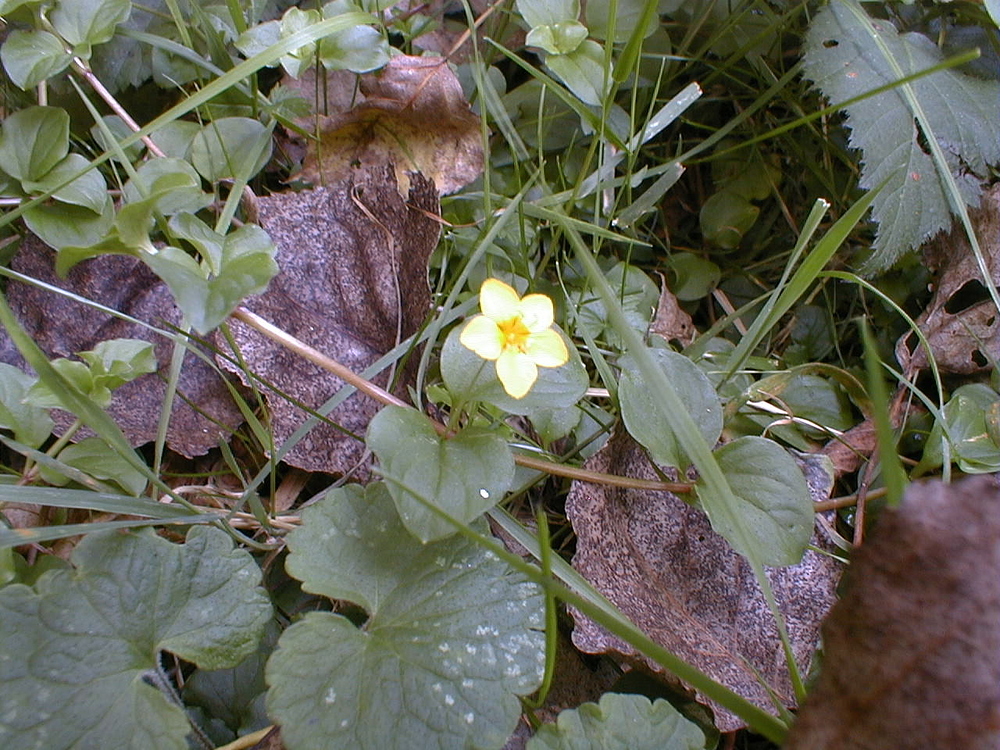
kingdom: Plantae
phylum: Tracheophyta
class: Magnoliopsida
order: Ericales
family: Primulaceae
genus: Lysimachia
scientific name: Lysimachia nemorum
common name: Yellow pimpernel
